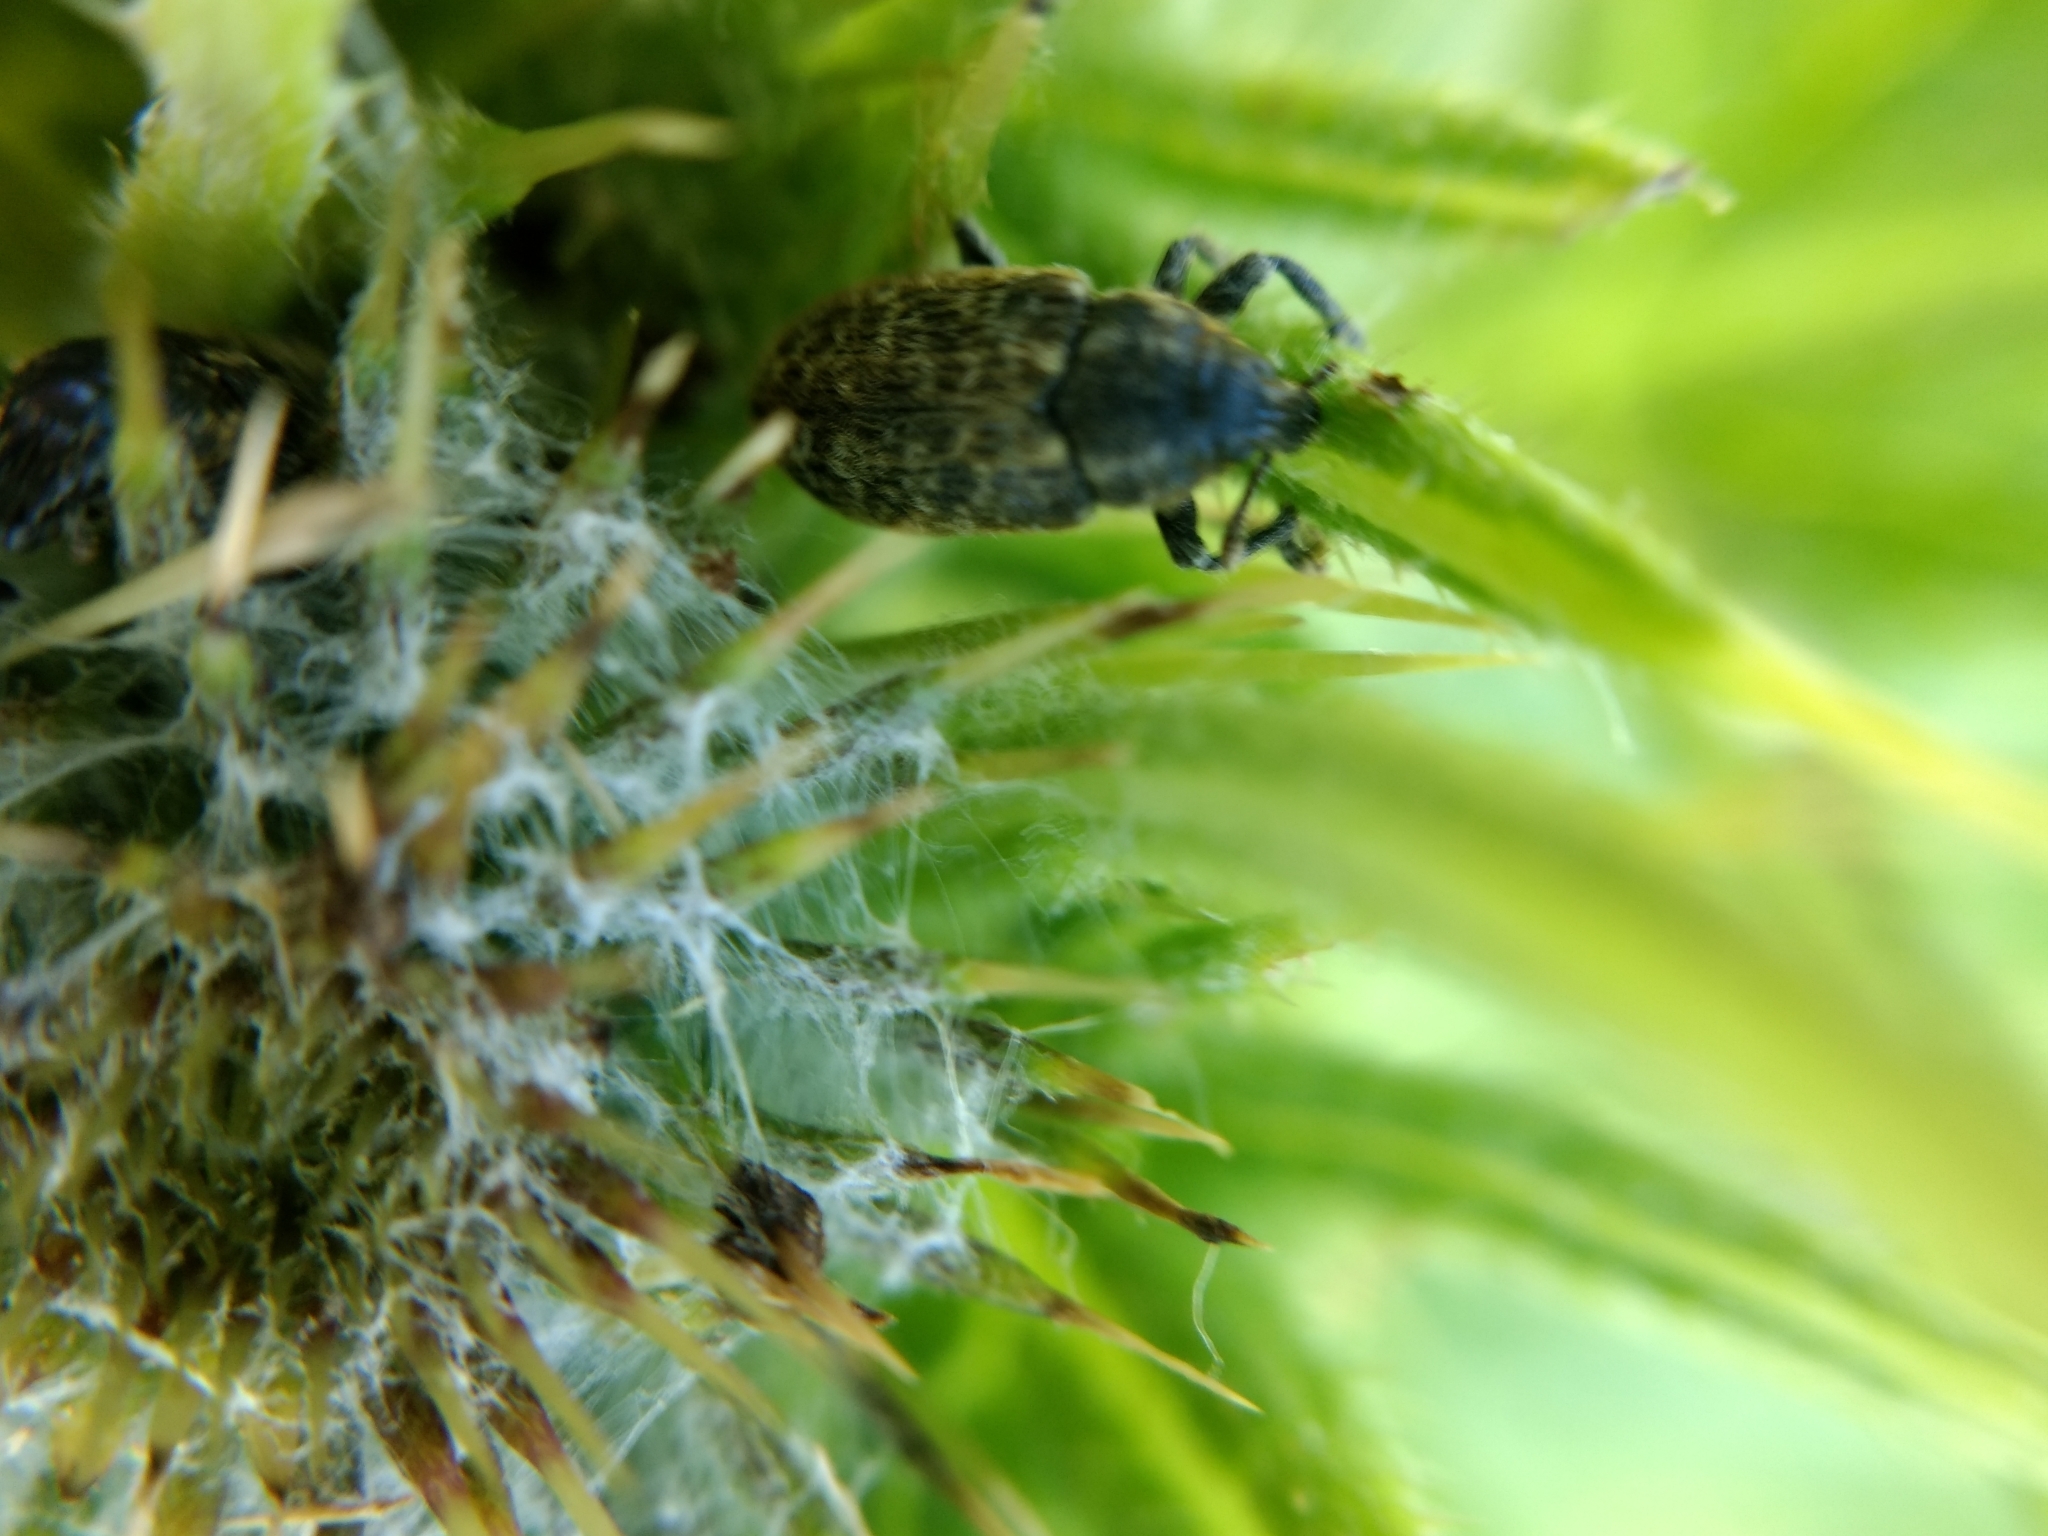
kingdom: Animalia
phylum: Arthropoda
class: Insecta
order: Coleoptera
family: Curculionidae
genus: Rhinocyllus
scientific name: Rhinocyllus conicus
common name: Weevil
